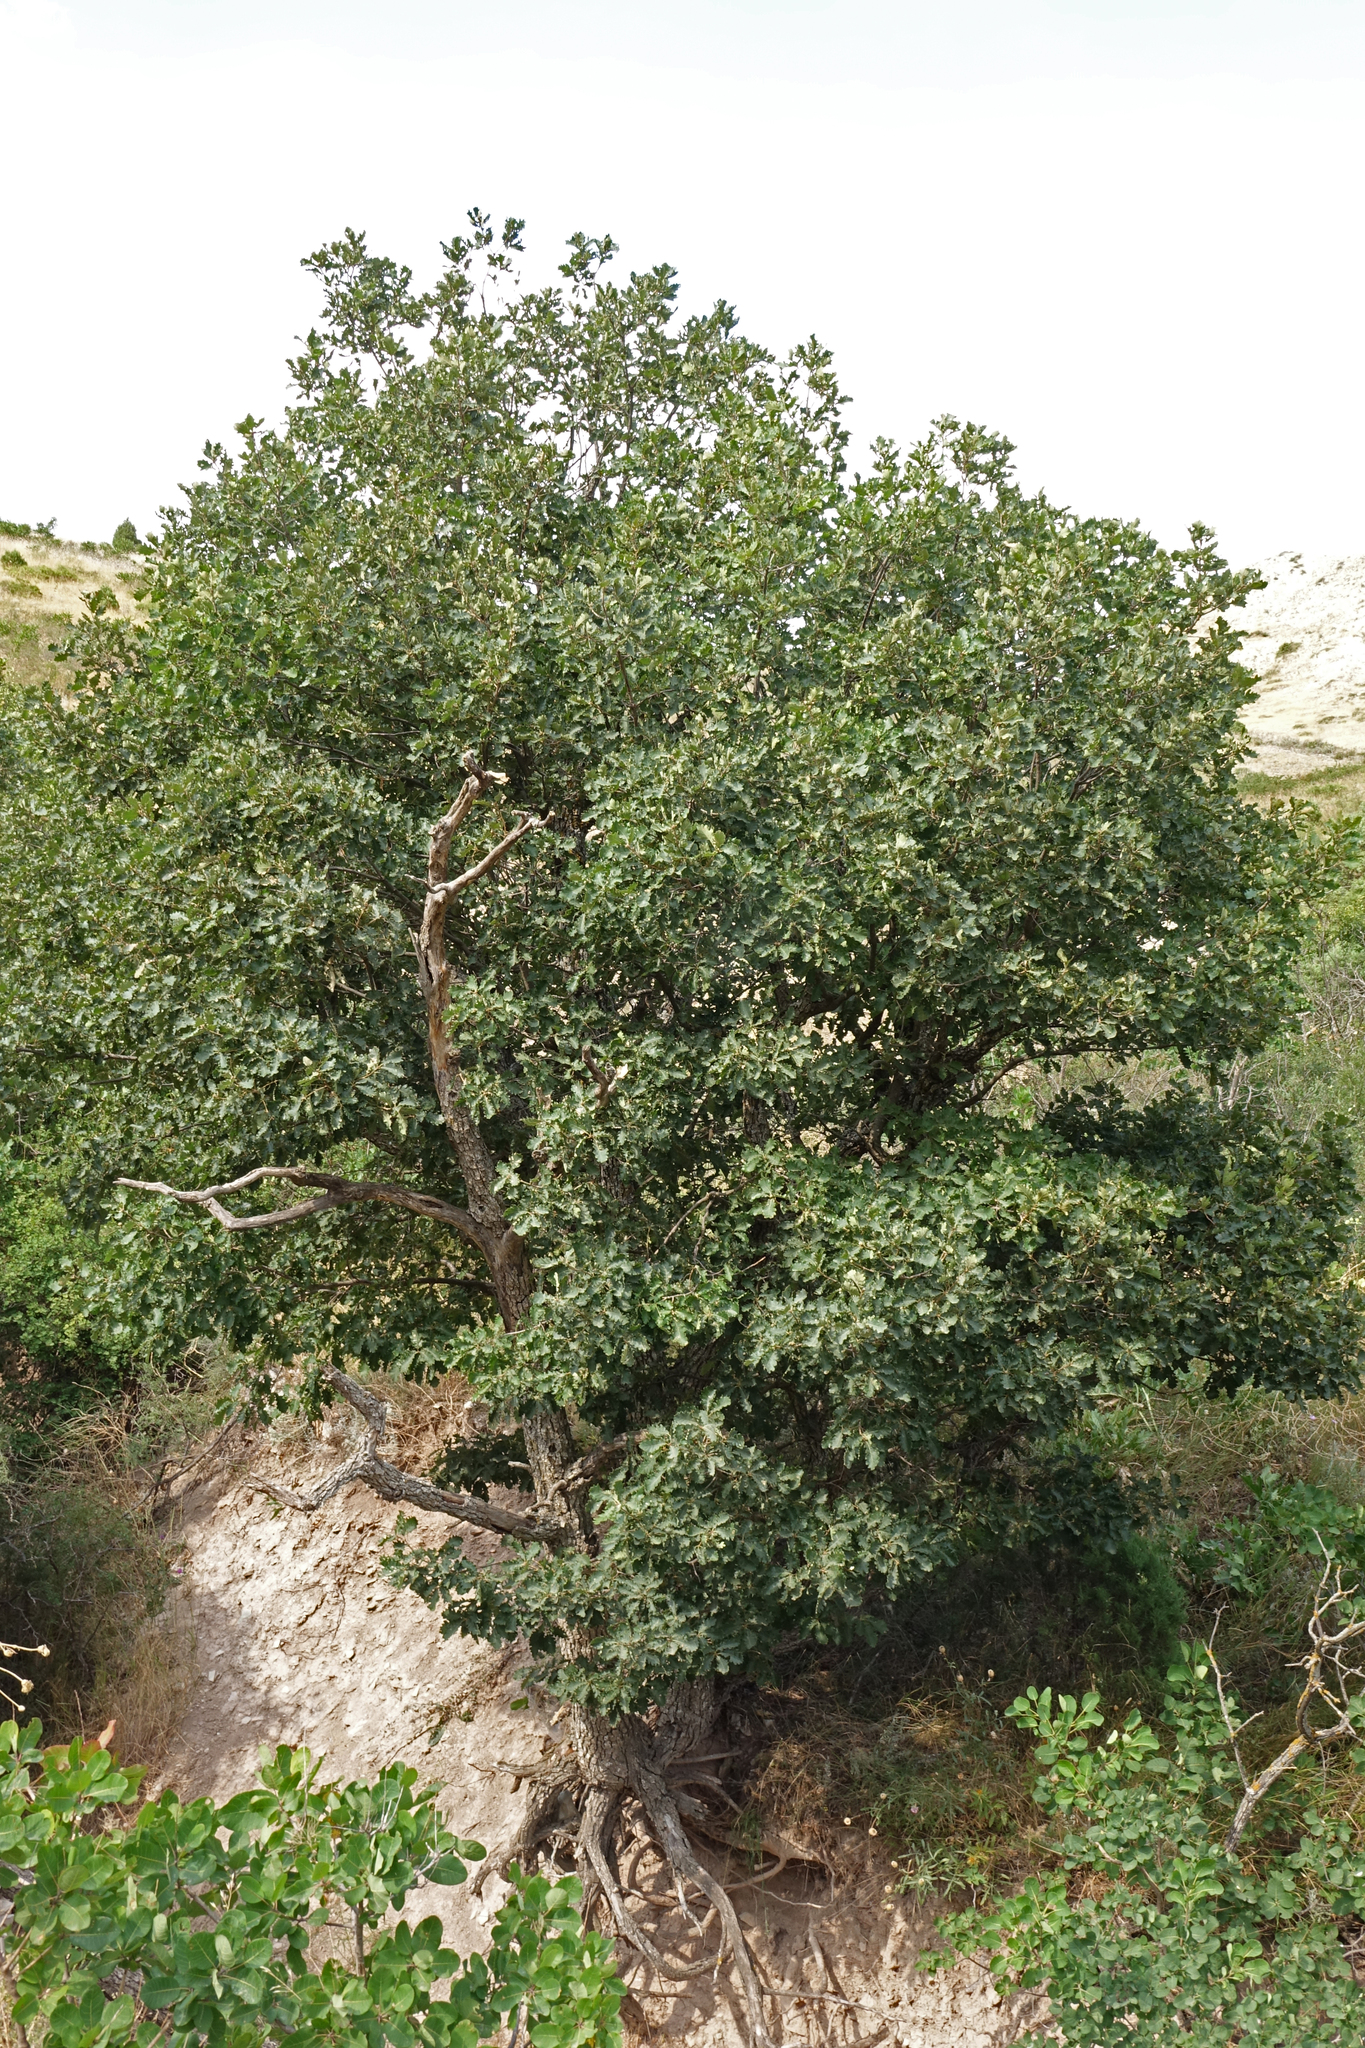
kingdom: Plantae
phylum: Tracheophyta
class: Magnoliopsida
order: Fagales
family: Fagaceae
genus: Quercus
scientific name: Quercus petraea
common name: Sessile oak
